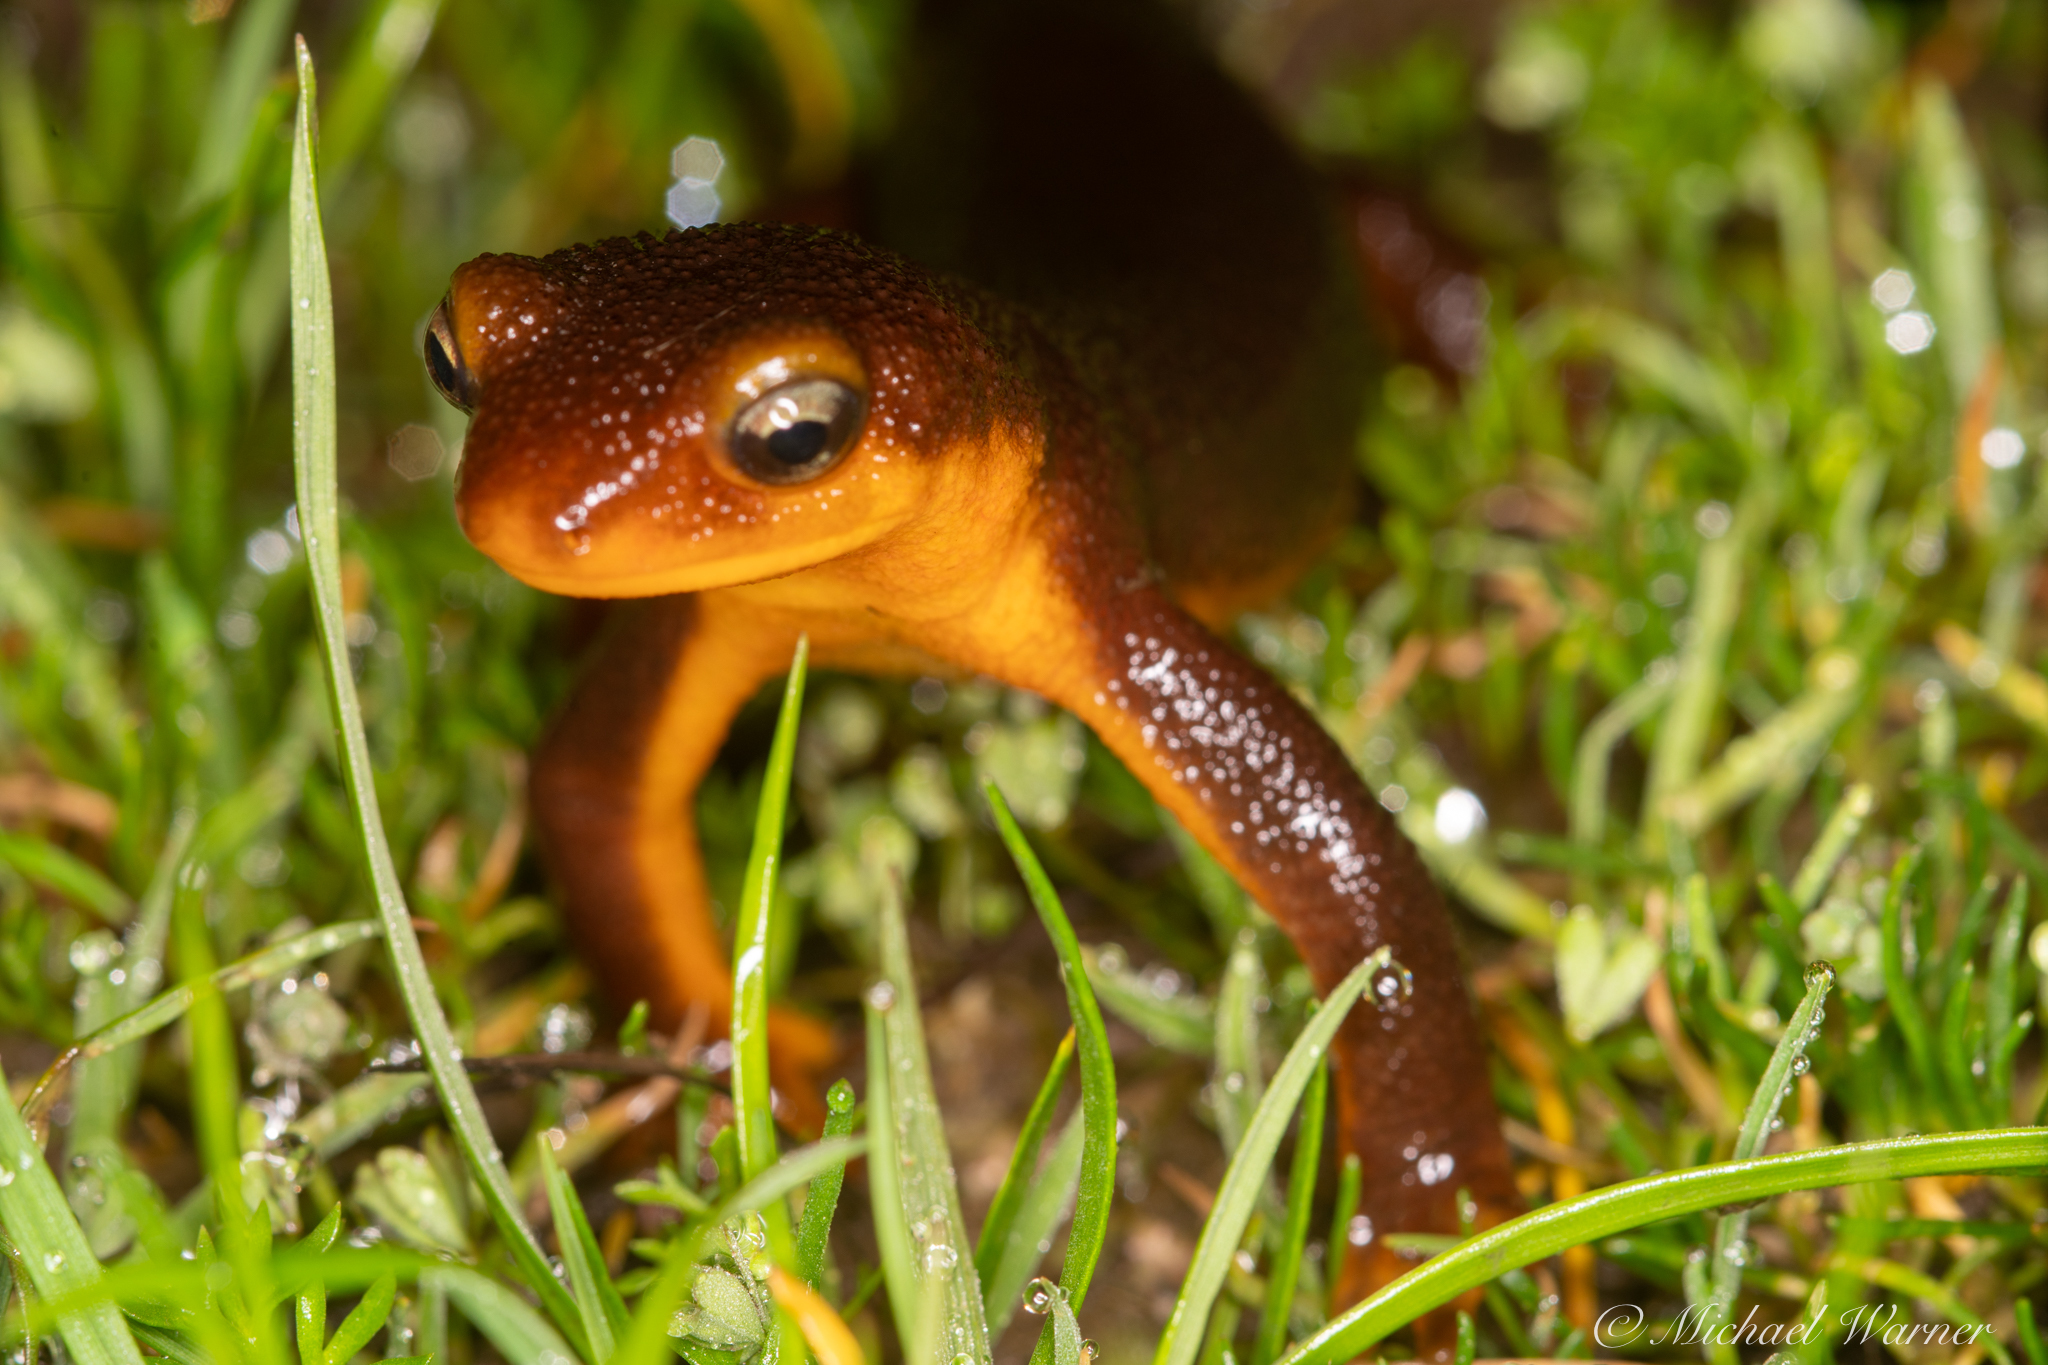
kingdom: Animalia
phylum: Chordata
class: Amphibia
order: Caudata
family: Salamandridae
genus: Taricha
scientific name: Taricha torosa
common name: California newt
